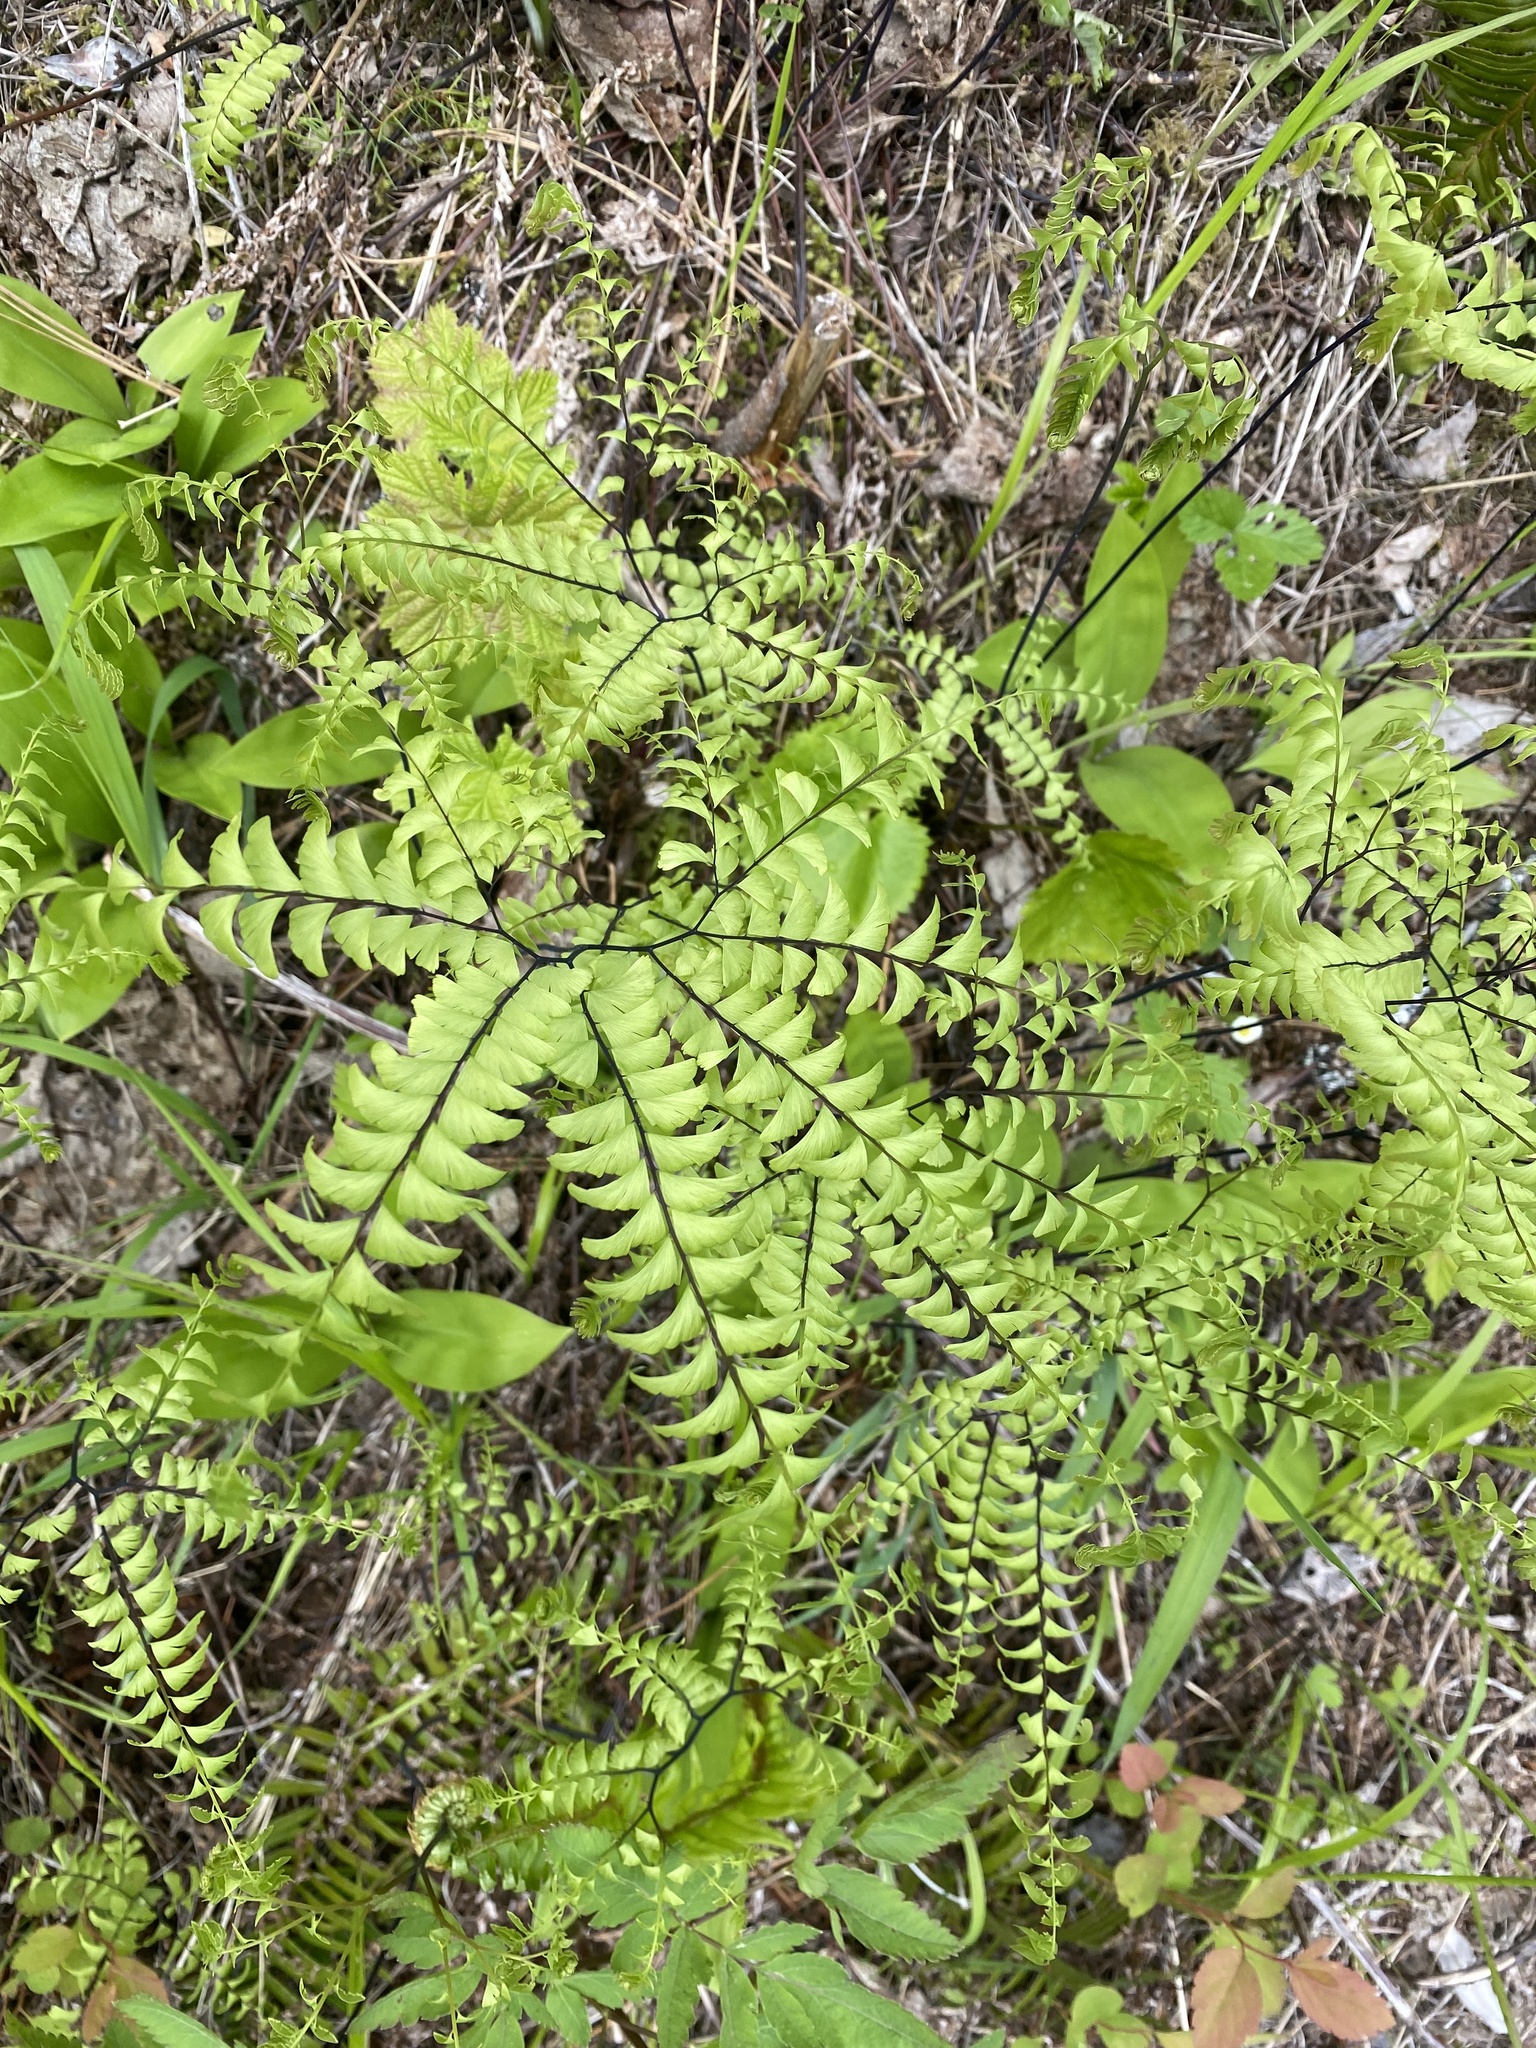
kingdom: Plantae
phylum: Tracheophyta
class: Polypodiopsida
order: Polypodiales
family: Pteridaceae
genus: Adiantum
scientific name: Adiantum aleuticum
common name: Aleutian maidenhair fern
